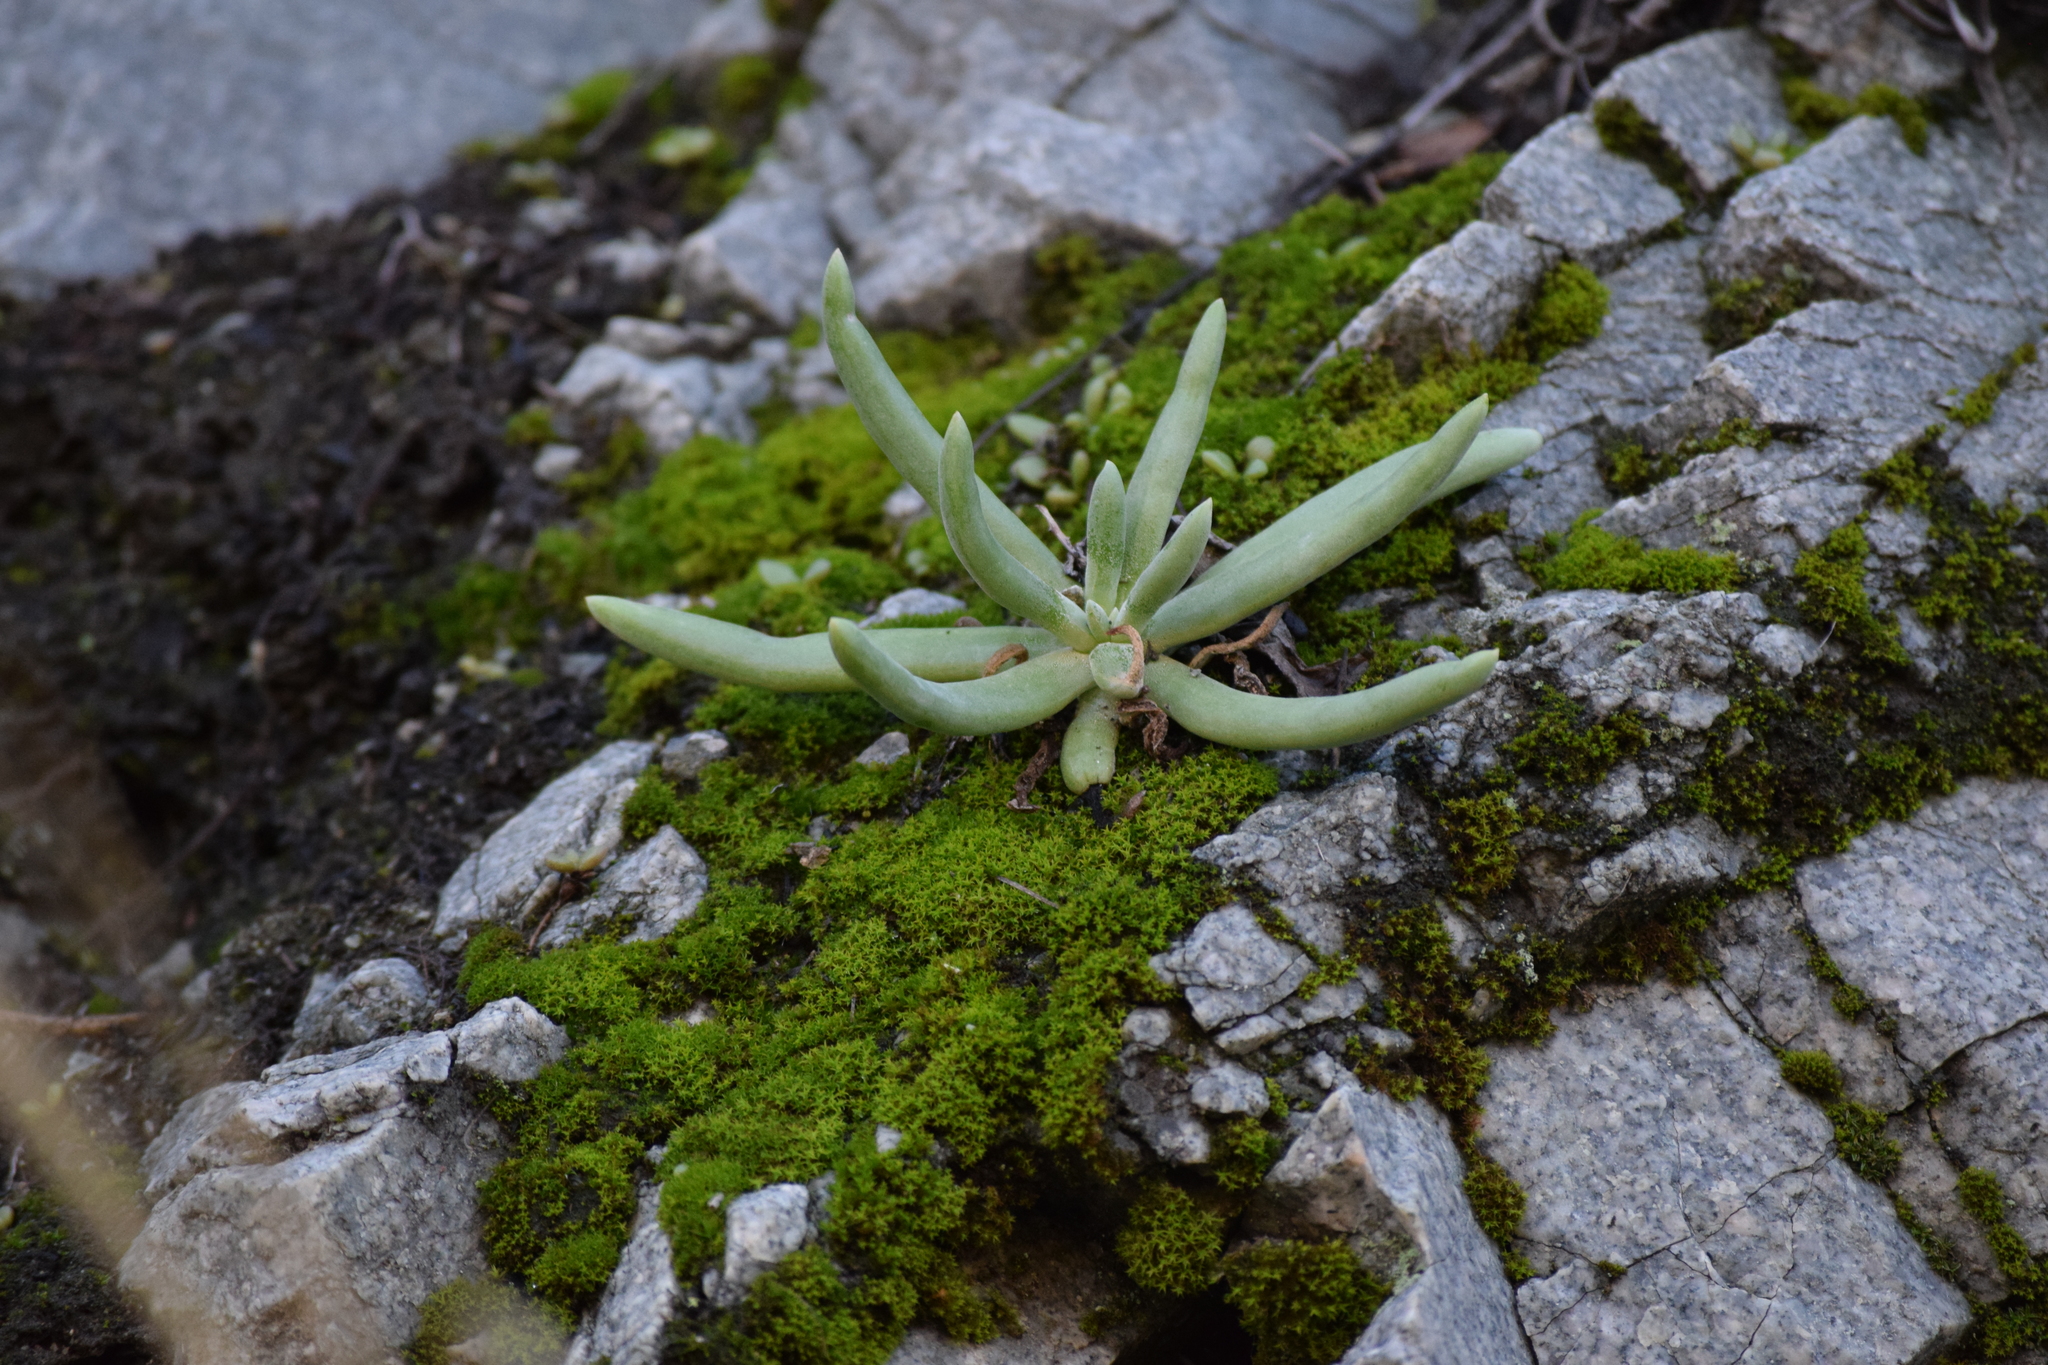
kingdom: Plantae
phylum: Tracheophyta
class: Magnoliopsida
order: Saxifragales
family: Crassulaceae
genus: Dudleya
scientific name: Dudleya densiflora
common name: San gabriel mountains dudleya
